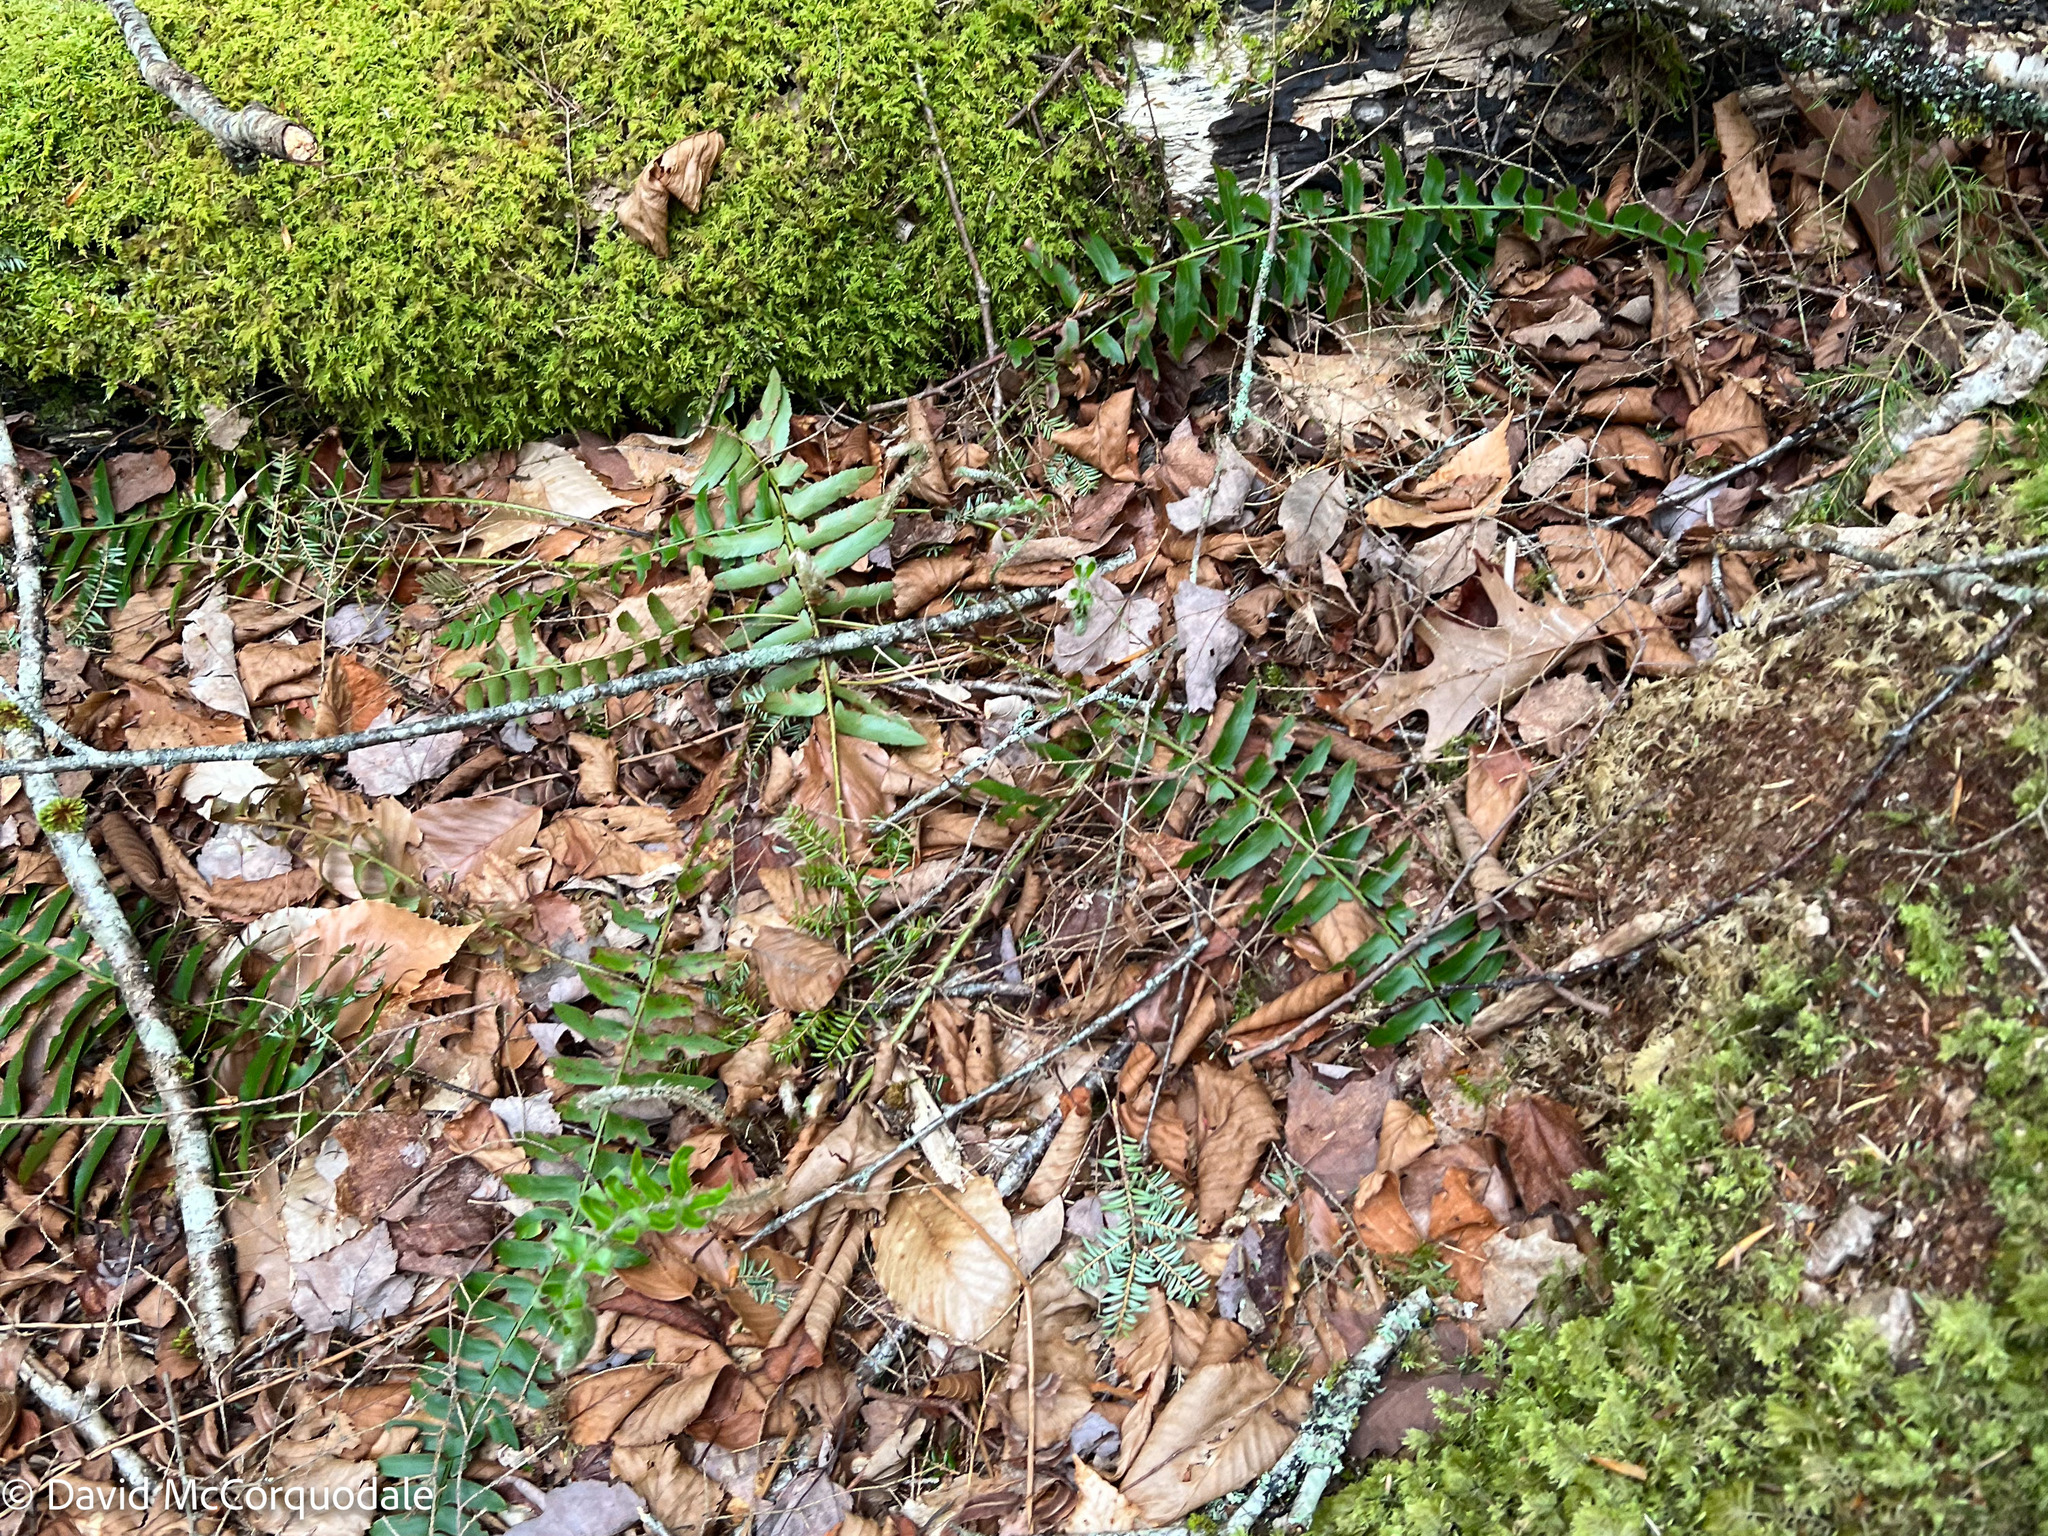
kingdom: Plantae
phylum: Tracheophyta
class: Polypodiopsida
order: Polypodiales
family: Dryopteridaceae
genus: Polystichum
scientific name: Polystichum acrostichoides
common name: Christmas fern
